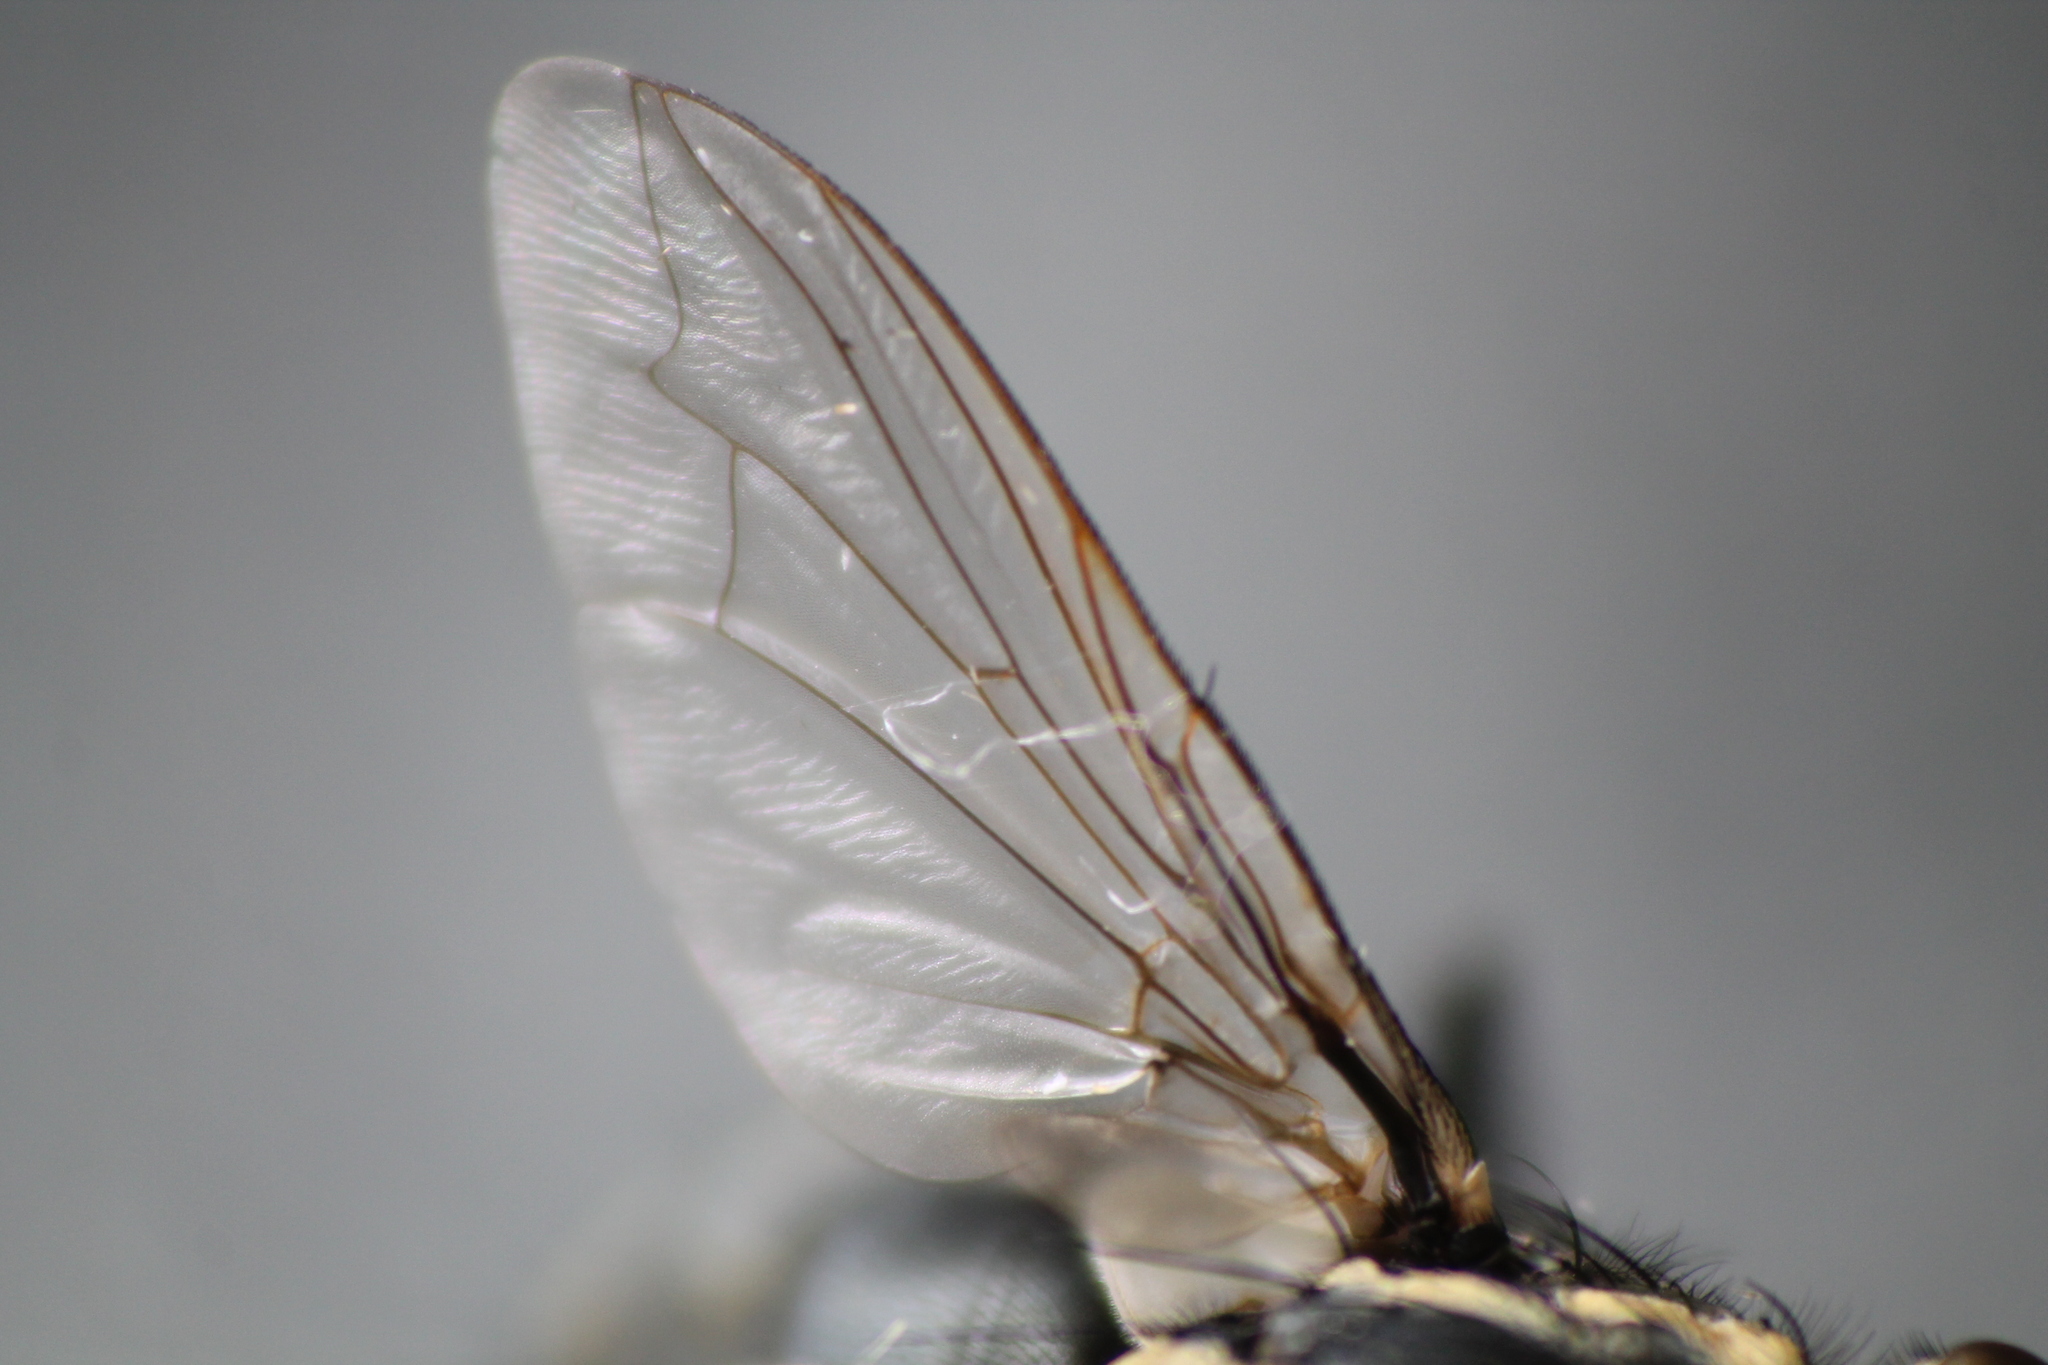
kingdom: Animalia
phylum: Arthropoda
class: Insecta
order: Diptera
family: Sarcophagidae
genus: Oxysarcodexia
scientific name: Oxysarcodexia varia
